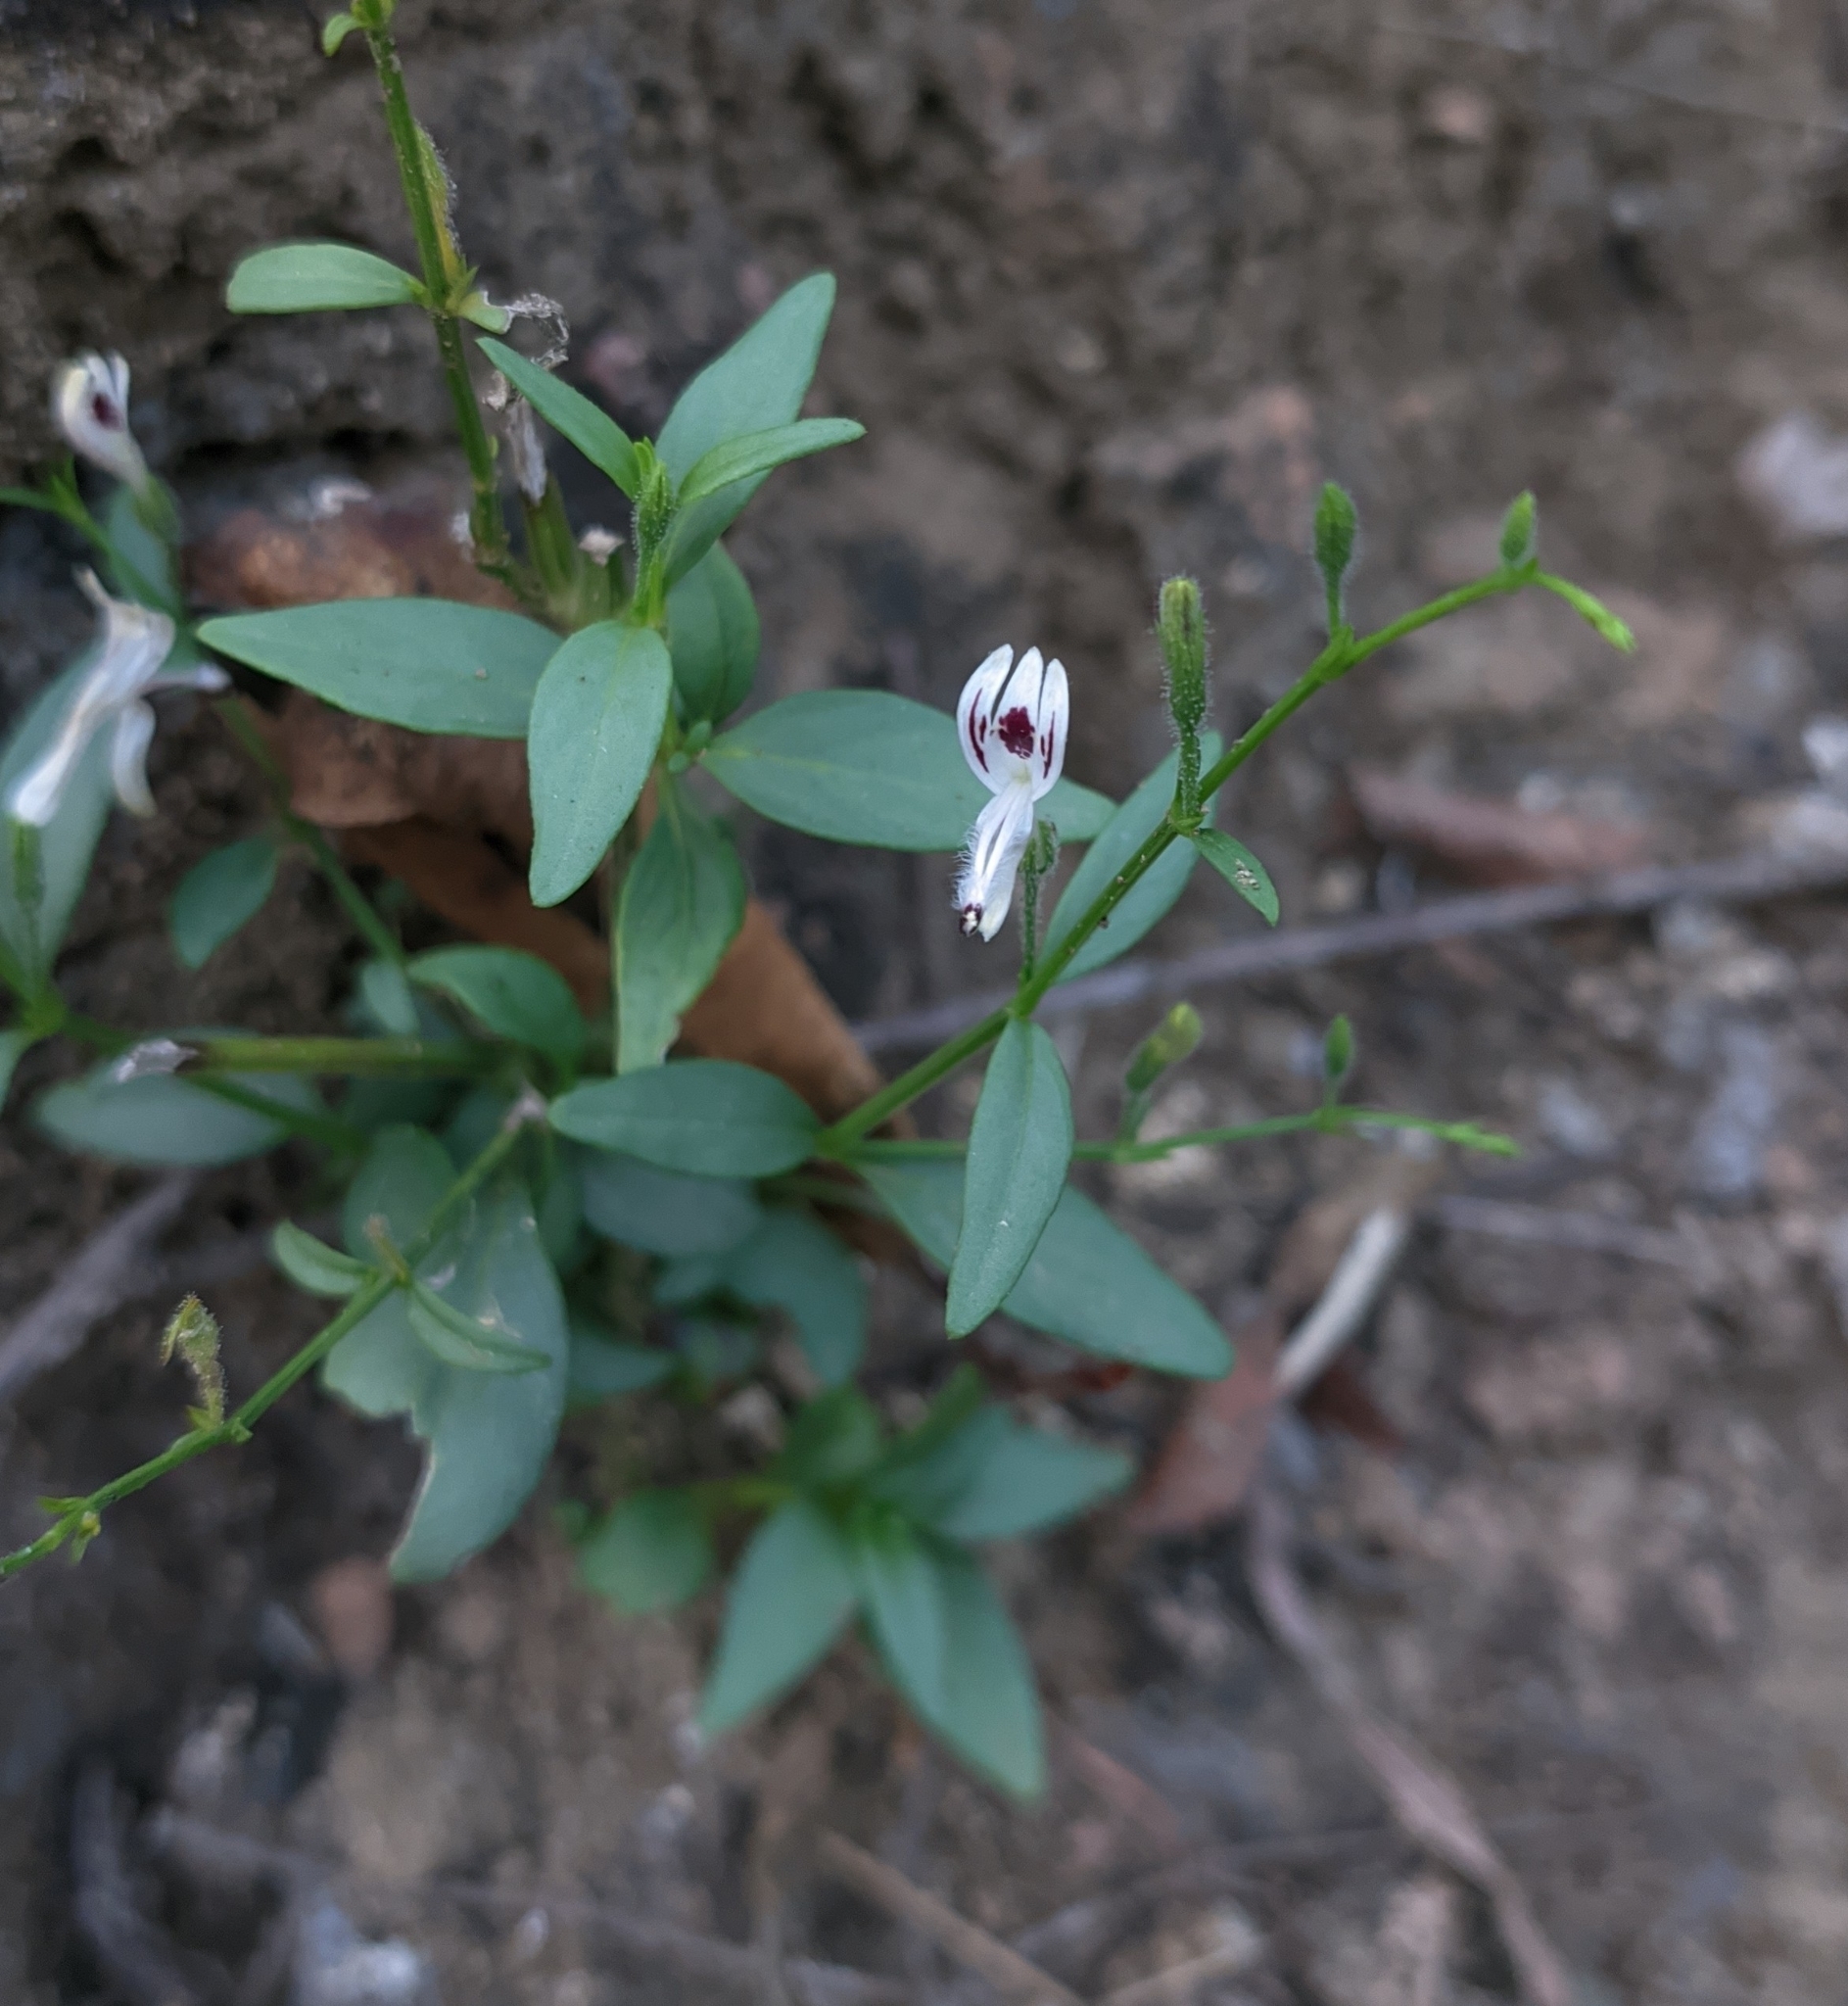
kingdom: Plantae
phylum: Tracheophyta
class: Magnoliopsida
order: Lamiales
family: Acanthaceae
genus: Andrographis
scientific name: Andrographis paniculata
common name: Green chireta
